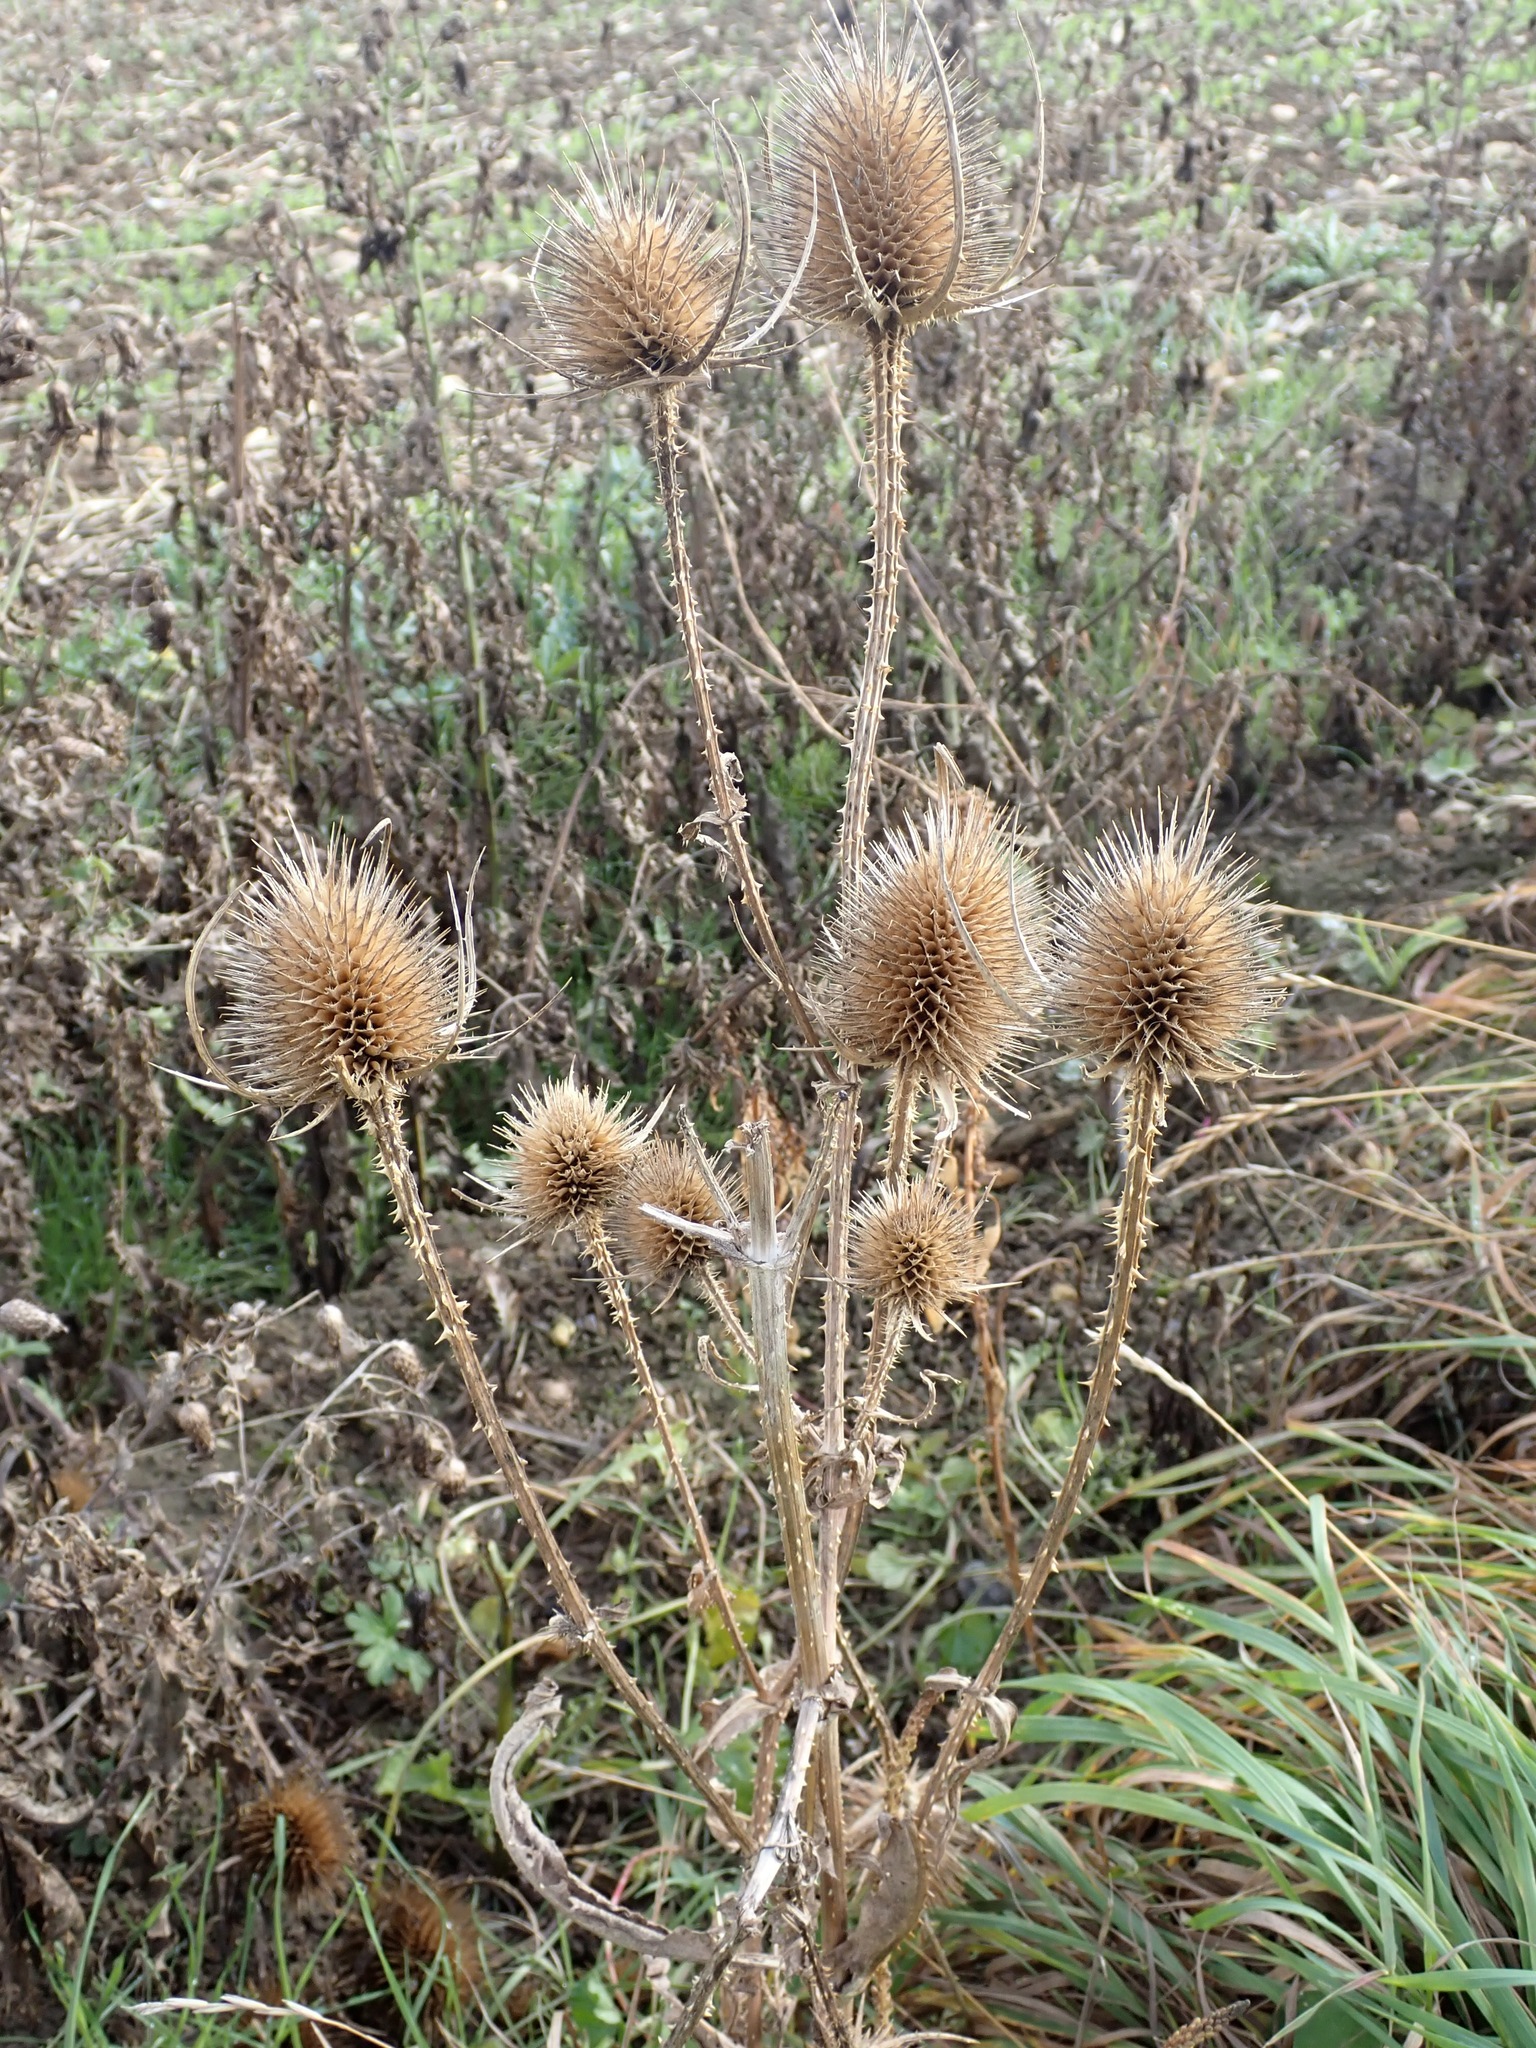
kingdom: Plantae
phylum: Tracheophyta
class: Magnoliopsida
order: Dipsacales
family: Caprifoliaceae
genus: Dipsacus
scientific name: Dipsacus fullonum
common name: Teasel
